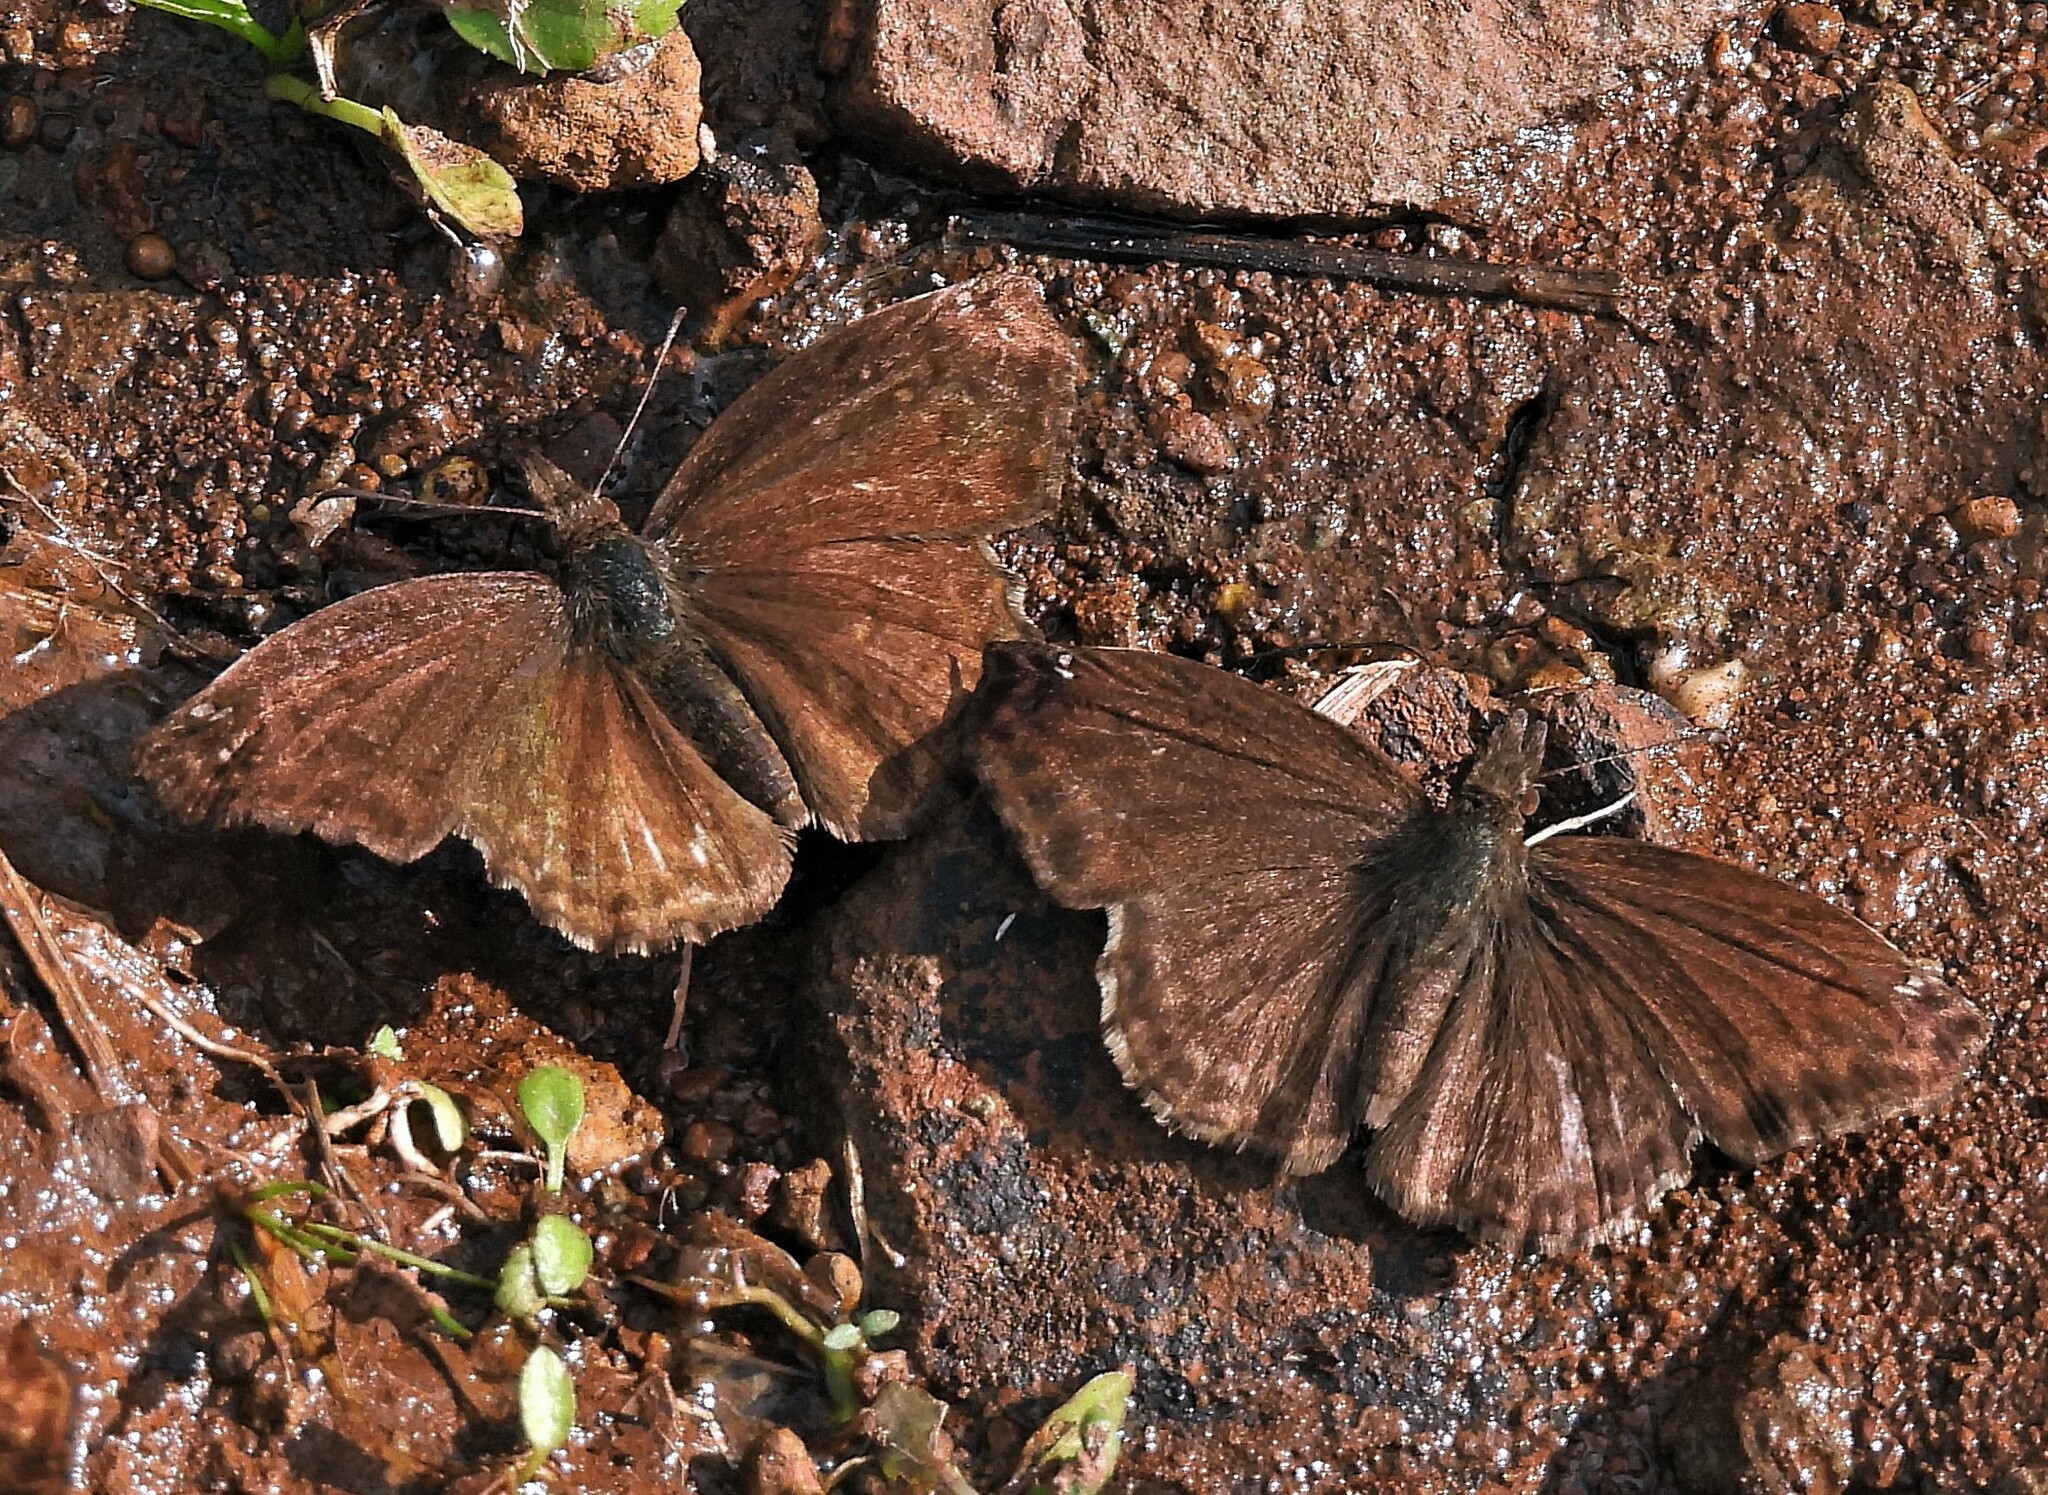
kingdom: Animalia
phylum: Arthropoda
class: Insecta
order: Lepidoptera
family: Hesperiidae
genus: Anisochoria
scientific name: Anisochoria sublimbata
